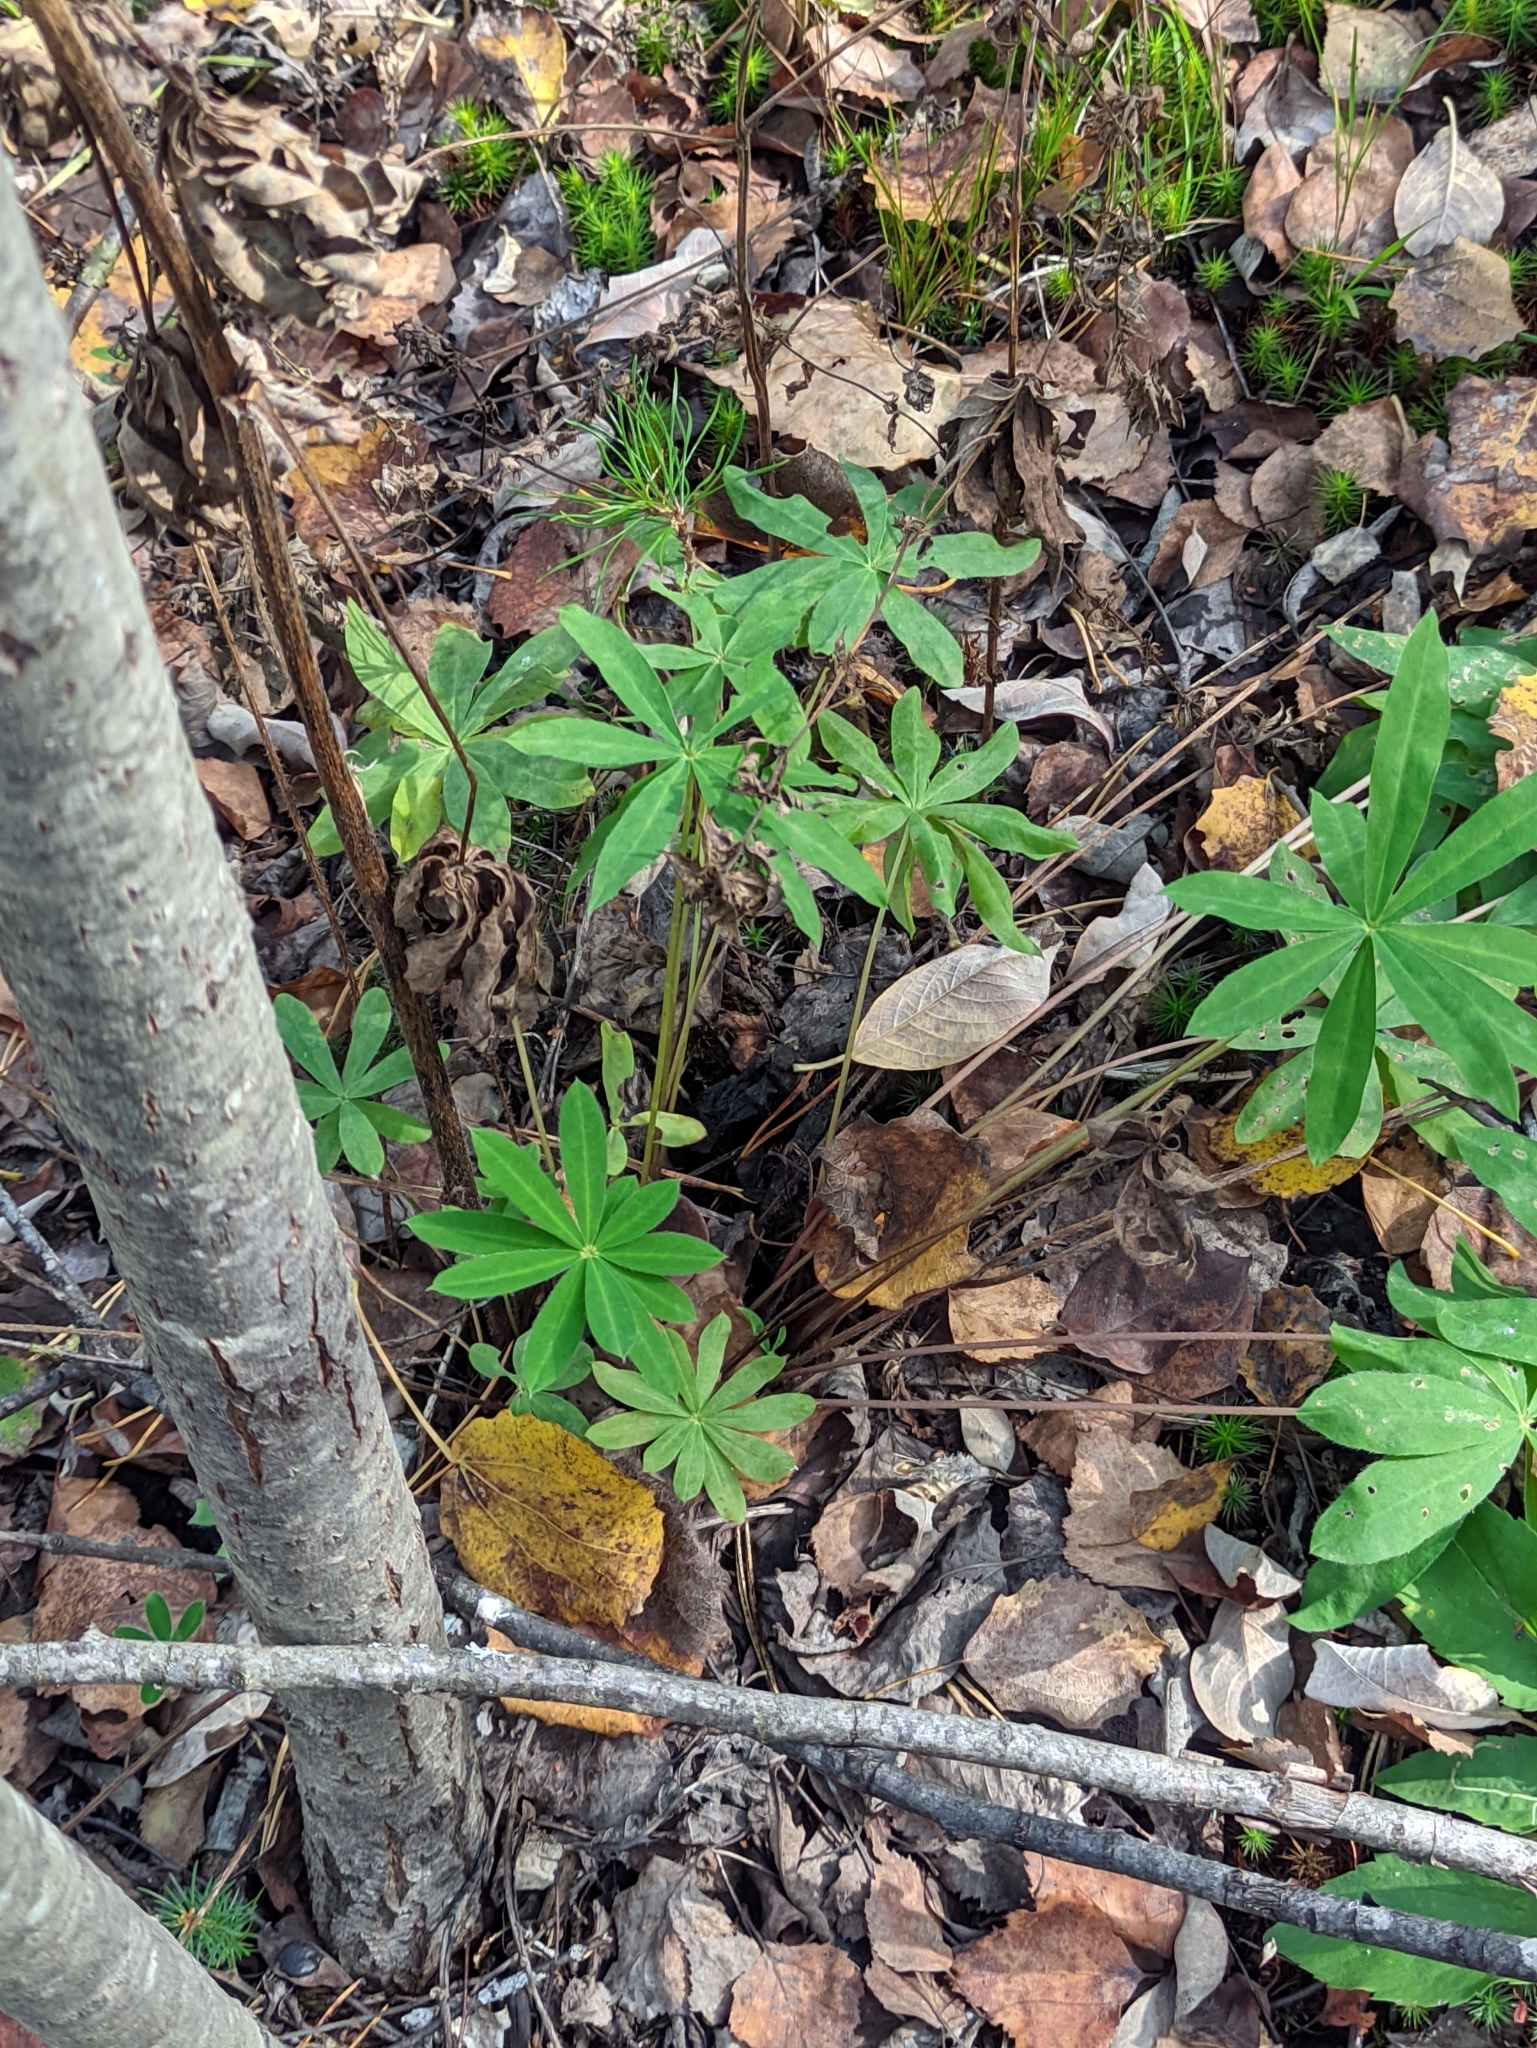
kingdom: Plantae
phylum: Tracheophyta
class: Magnoliopsida
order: Fabales
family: Fabaceae
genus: Lupinus
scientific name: Lupinus polyphyllus
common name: Garden lupin
